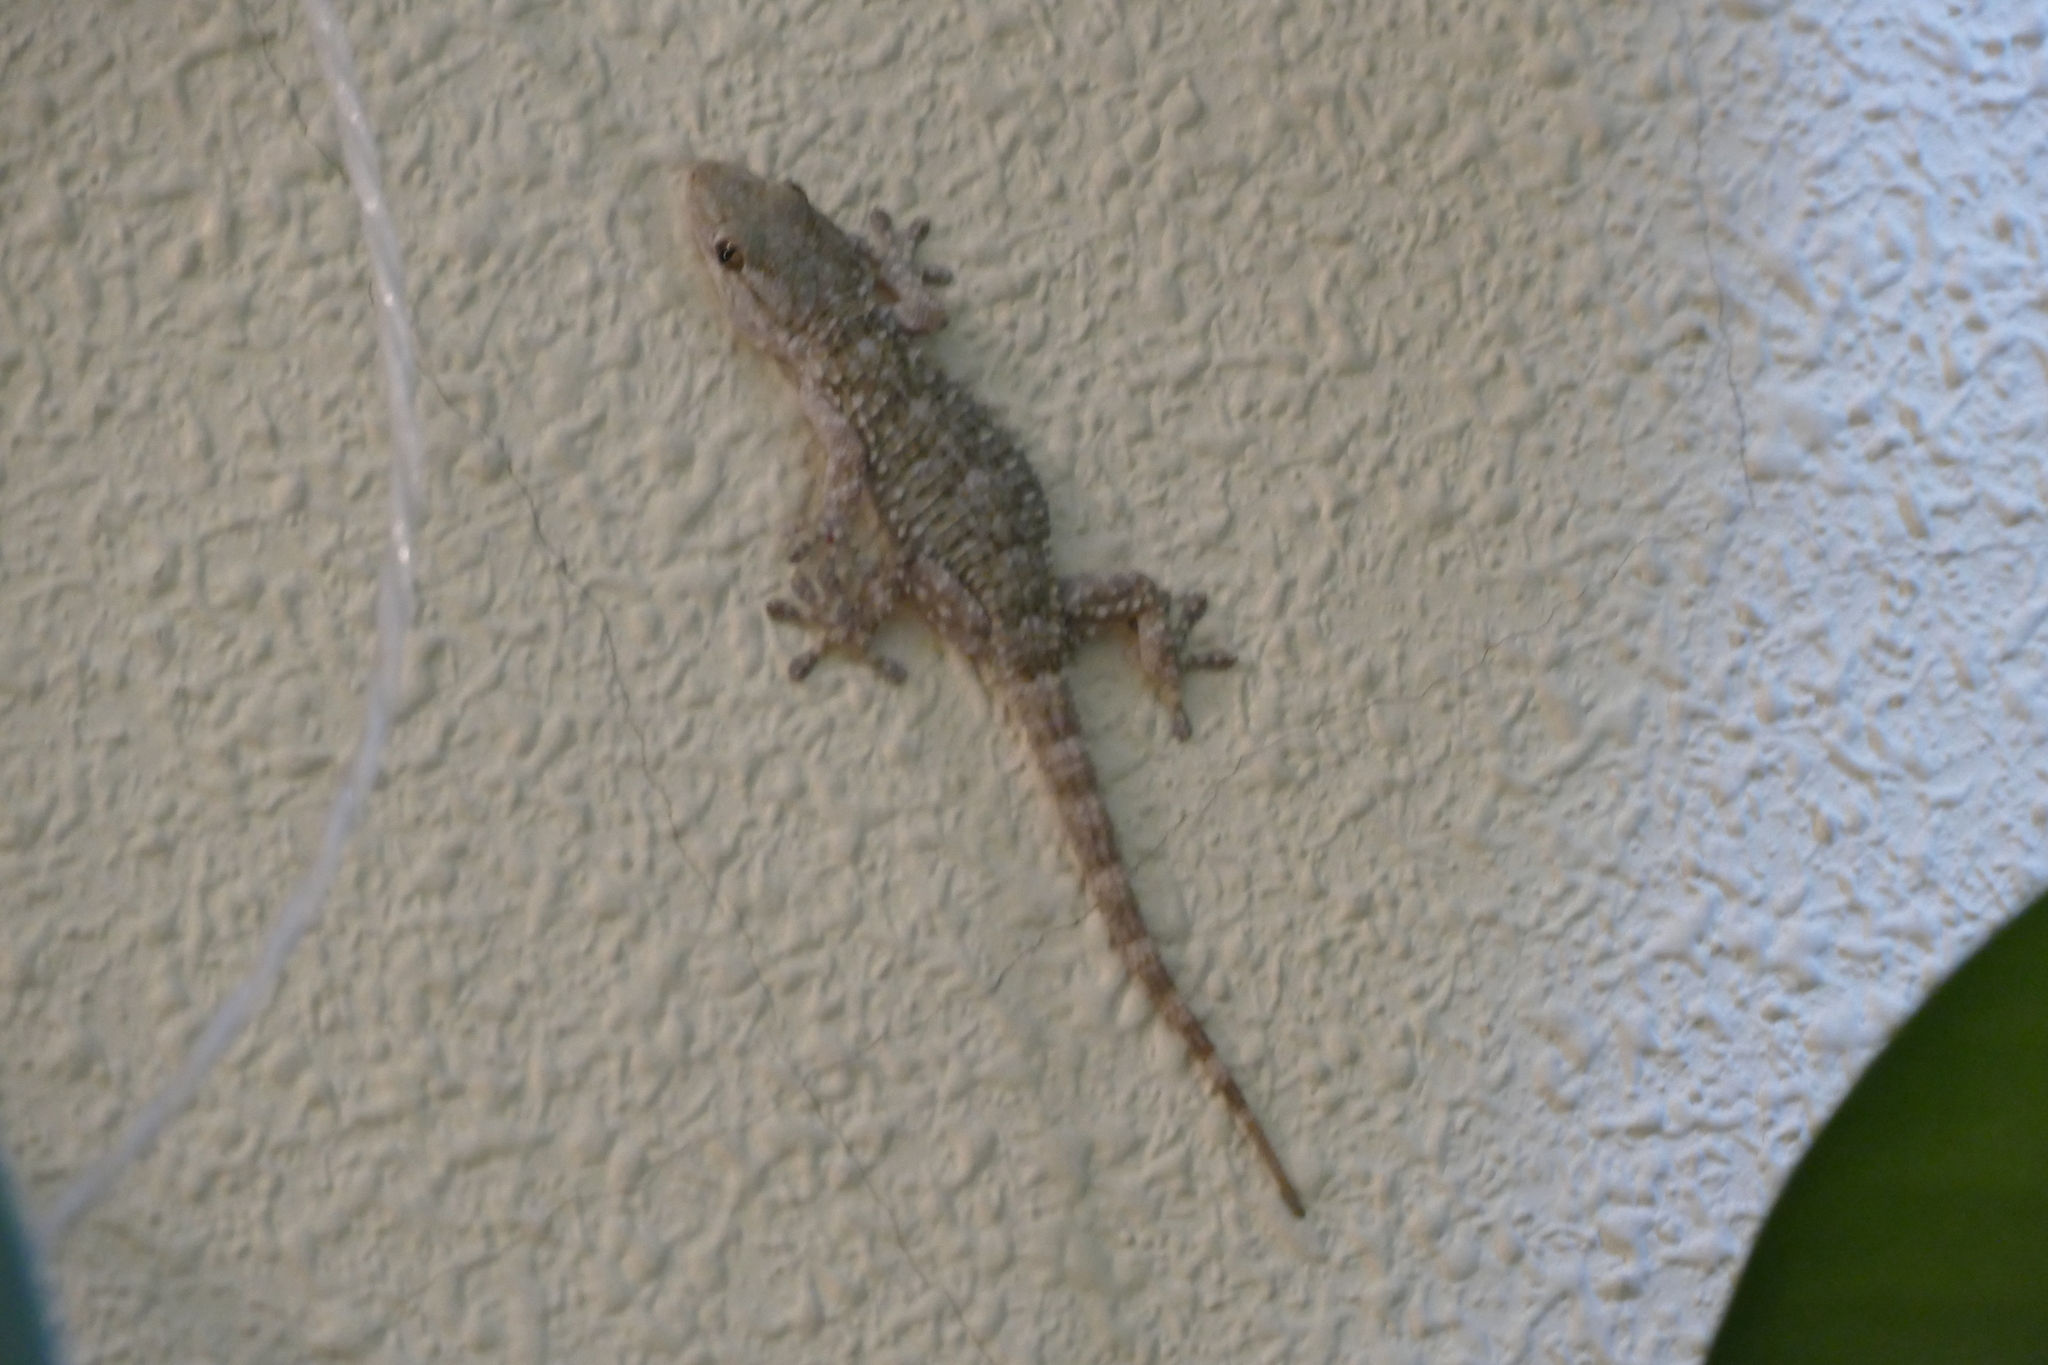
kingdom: Animalia
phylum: Chordata
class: Squamata
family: Phyllodactylidae
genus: Tarentola
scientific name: Tarentola mauritanica
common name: Moorish gecko
